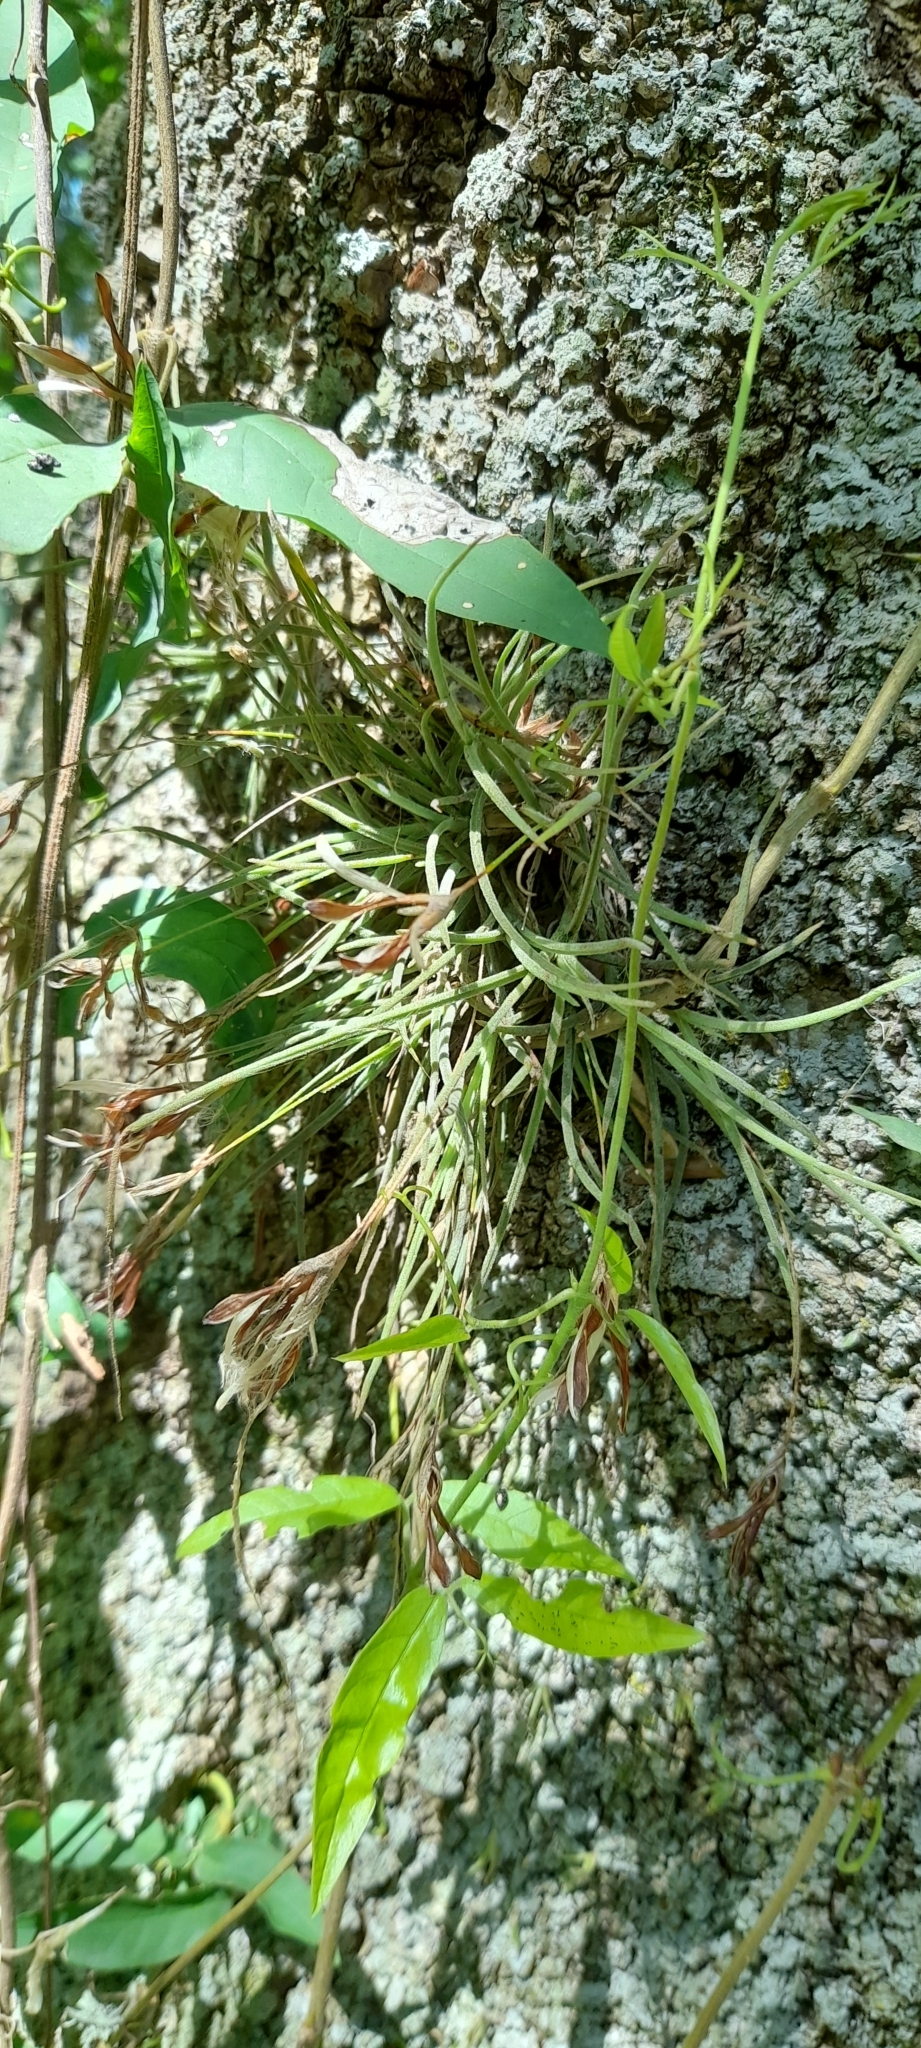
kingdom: Plantae
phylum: Tracheophyta
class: Liliopsida
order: Poales
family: Bromeliaceae
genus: Tillandsia
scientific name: Tillandsia recurvata
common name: Small ballmoss
